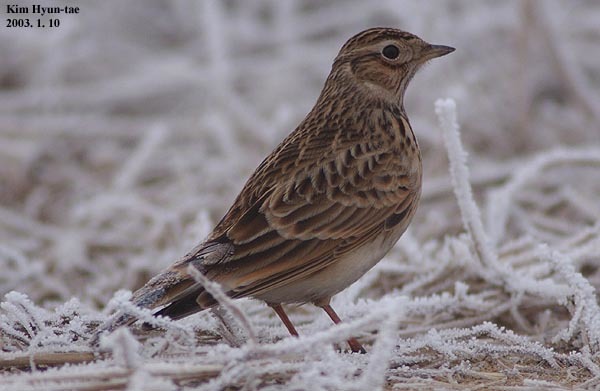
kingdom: Animalia
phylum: Chordata
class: Aves
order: Passeriformes
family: Alaudidae
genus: Alauda
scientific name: Alauda arvensis
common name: Eurasian skylark
